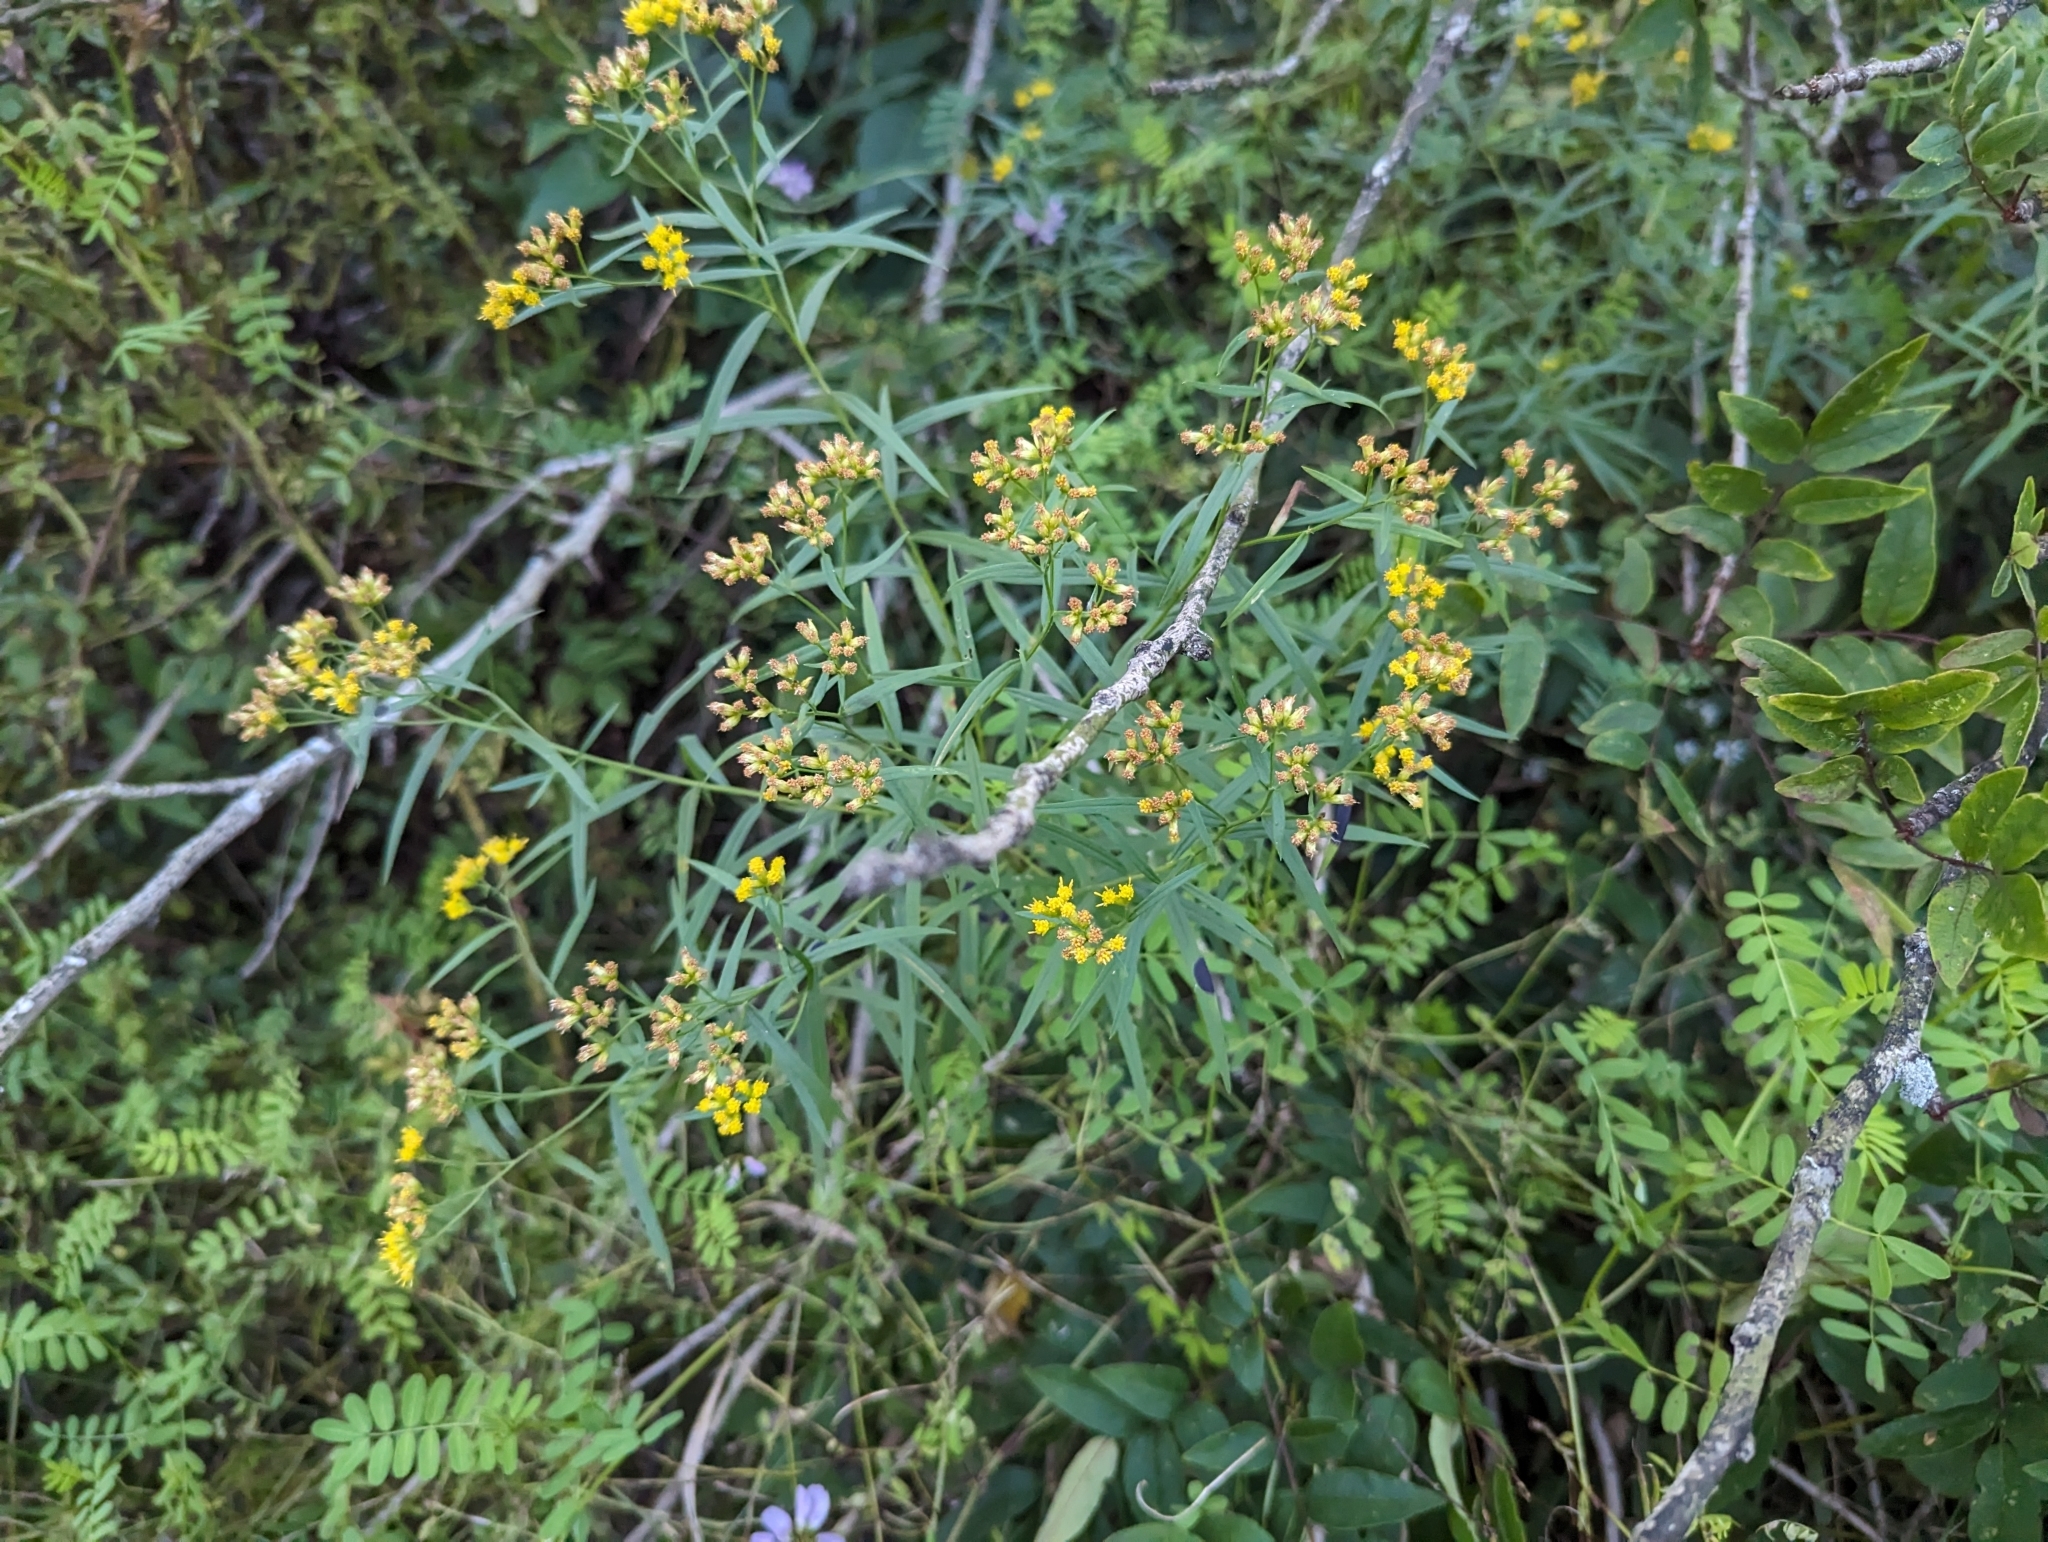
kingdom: Plantae
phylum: Tracheophyta
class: Magnoliopsida
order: Asterales
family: Asteraceae
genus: Euthamia
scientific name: Euthamia graminifolia
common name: Common goldentop
